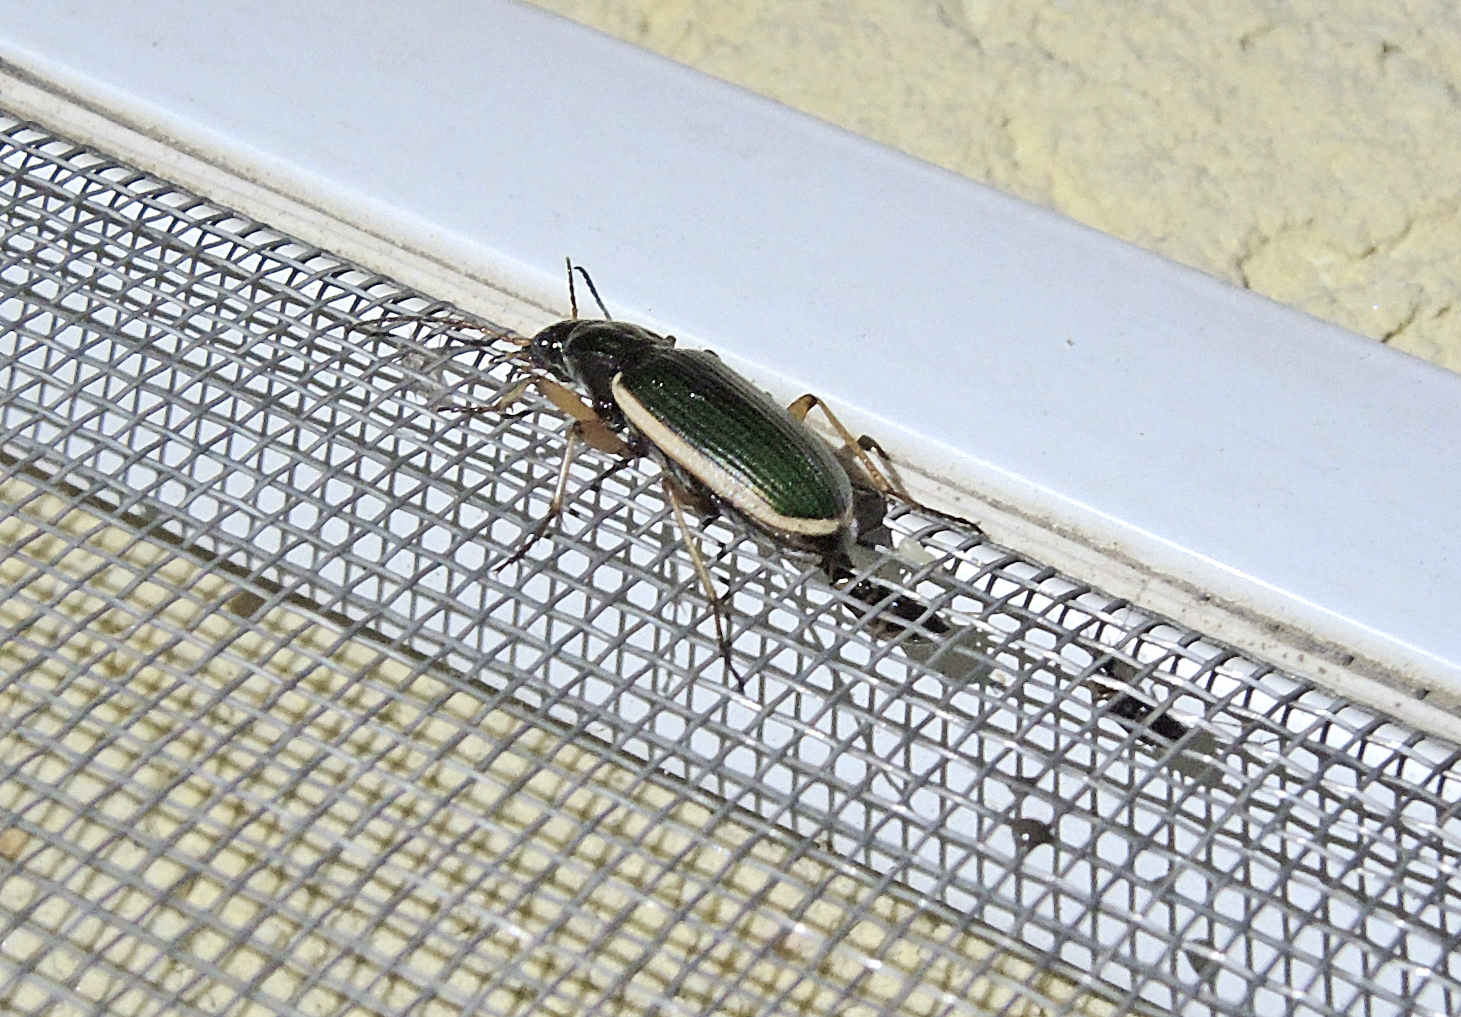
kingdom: Animalia
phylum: Arthropoda
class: Insecta
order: Coleoptera
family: Carabidae
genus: Chlaenius
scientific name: Chlaenius spoliatus
